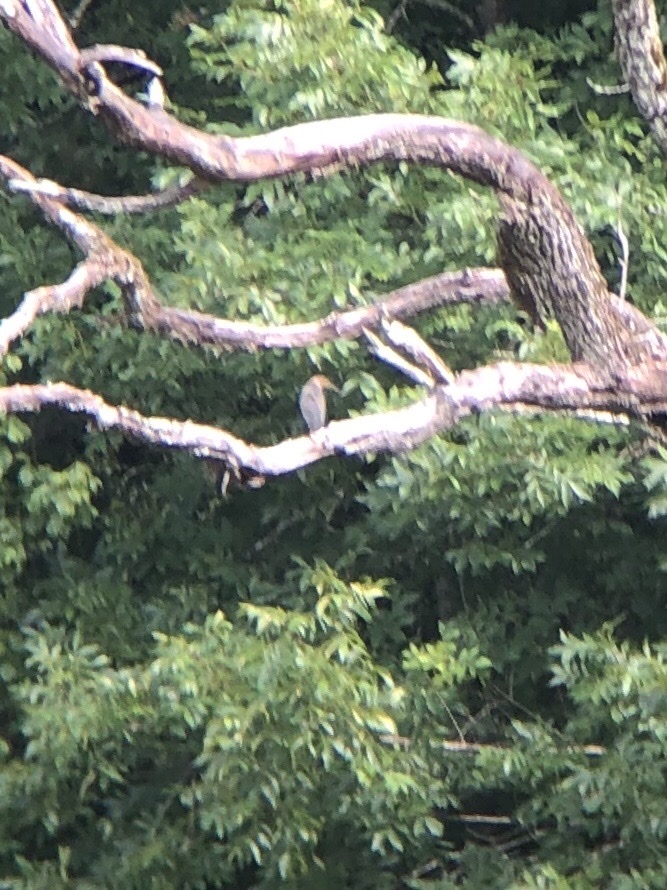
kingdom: Animalia
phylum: Chordata
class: Aves
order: Pelecaniformes
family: Ardeidae
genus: Butorides
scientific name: Butorides virescens
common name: Green heron
